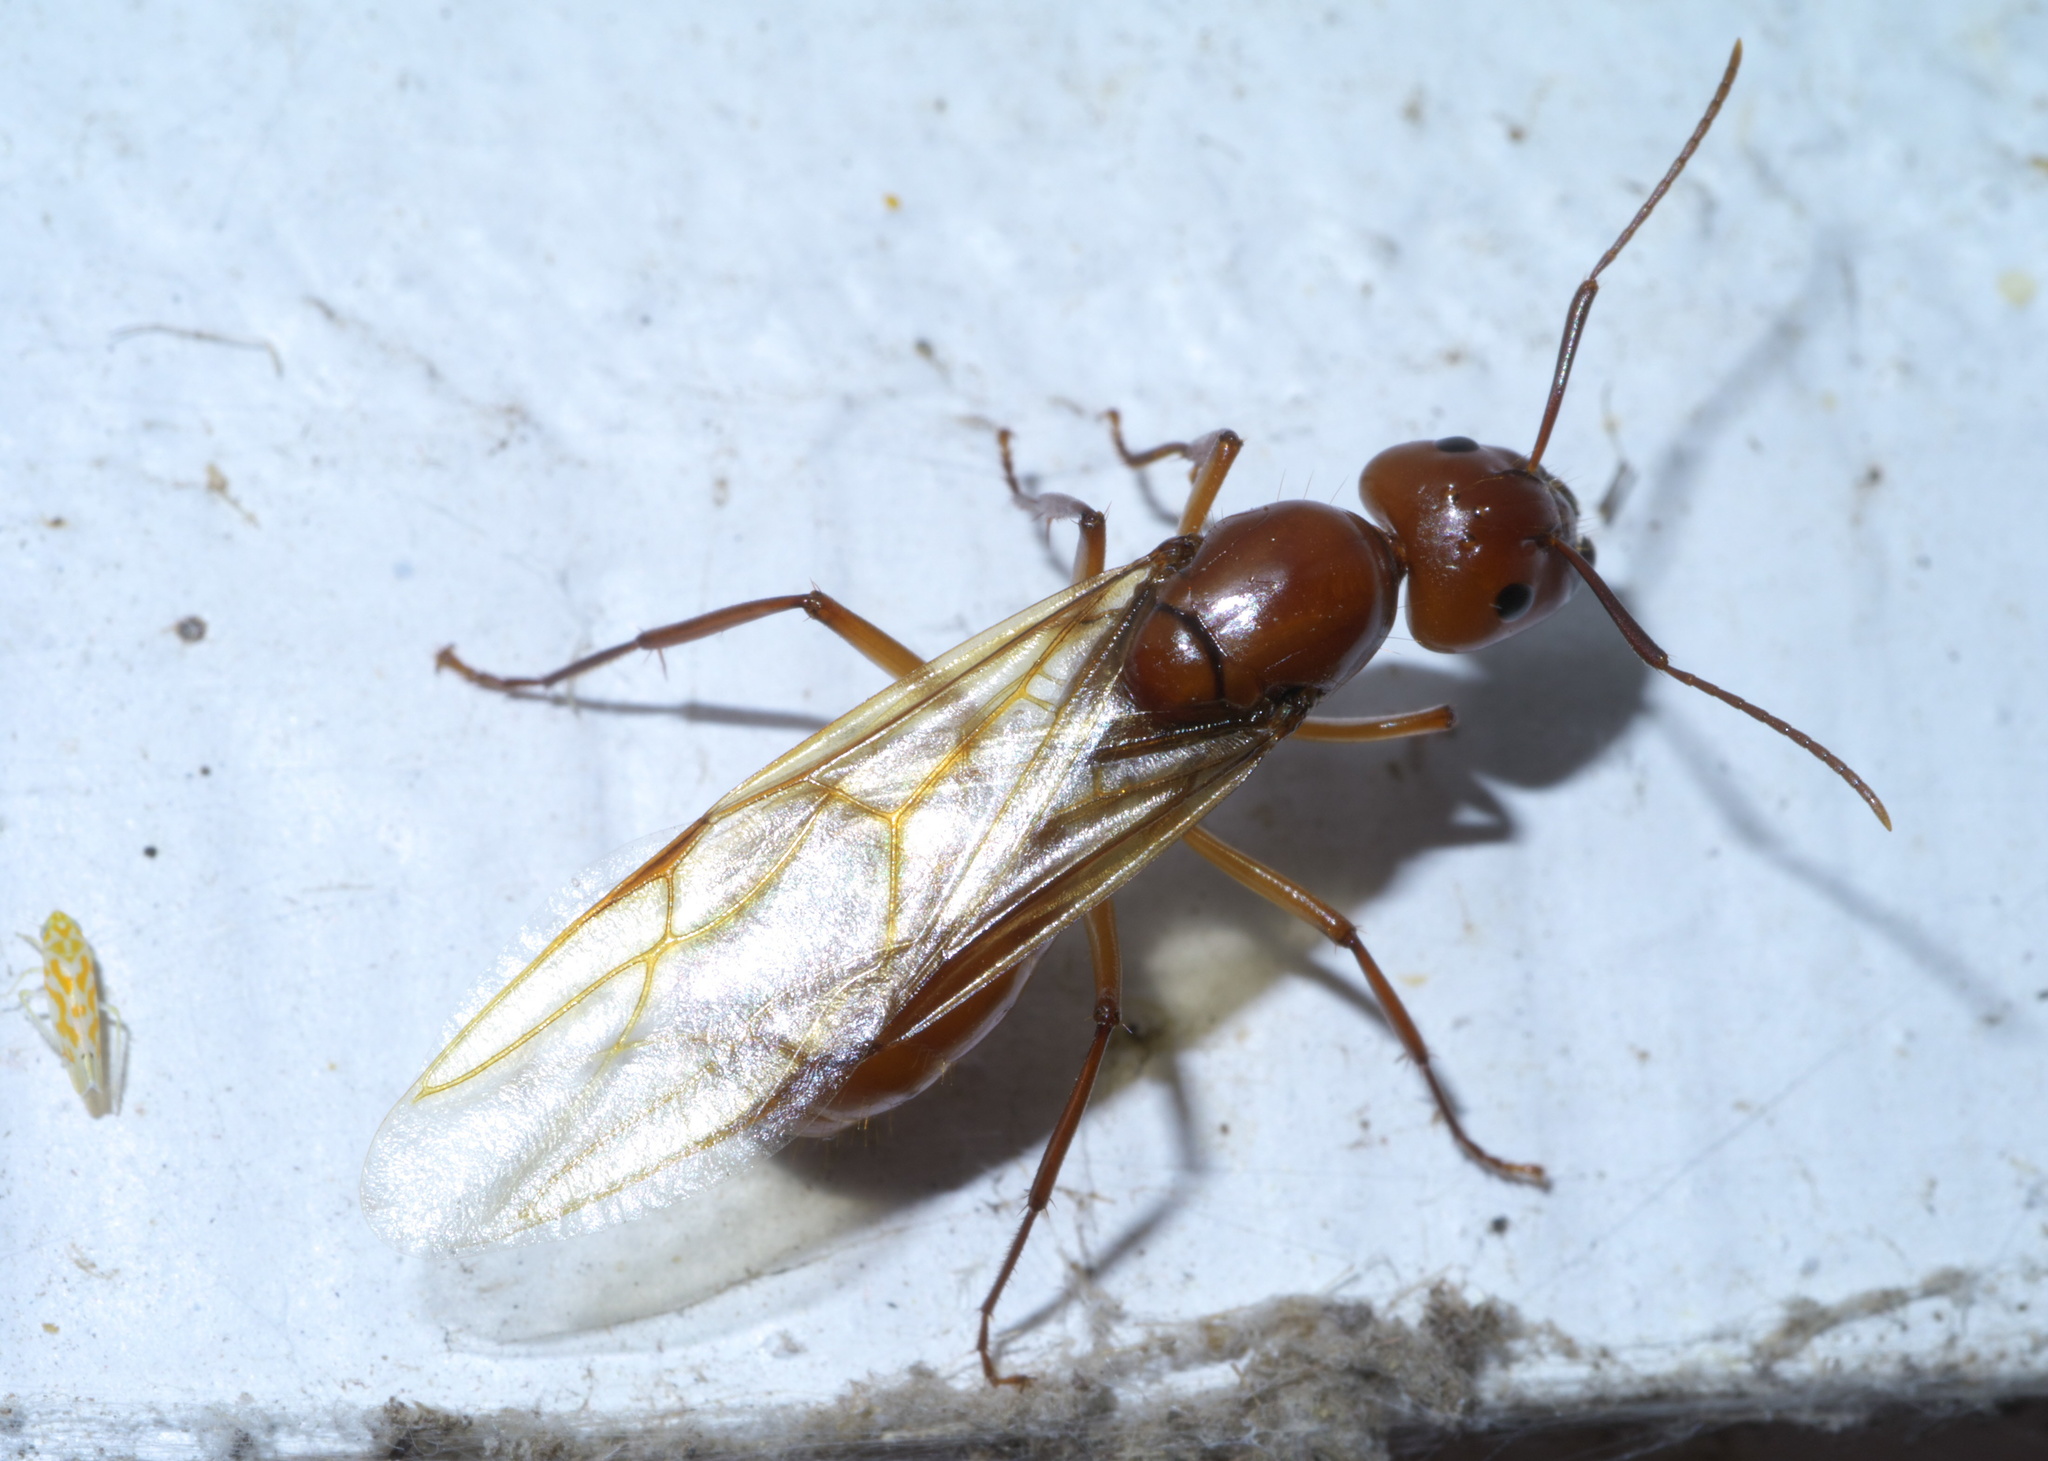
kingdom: Animalia
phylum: Arthropoda
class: Insecta
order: Hymenoptera
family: Formicidae
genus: Camponotus
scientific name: Camponotus castaneus
